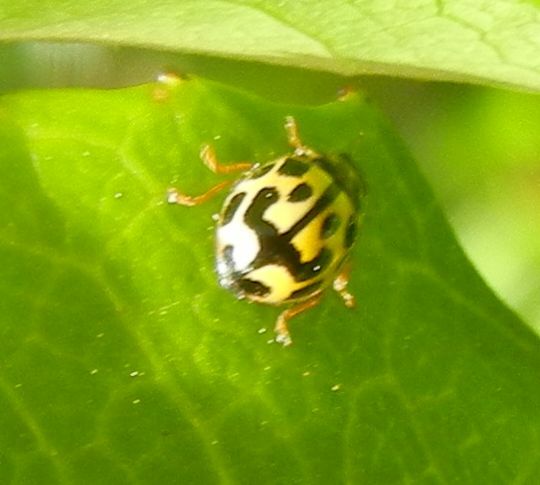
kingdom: Animalia
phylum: Arthropoda
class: Insecta
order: Coleoptera
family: Coccinellidae
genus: Propylaea
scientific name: Propylaea quatuordecimpunctata
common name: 14-spotted ladybird beetle
